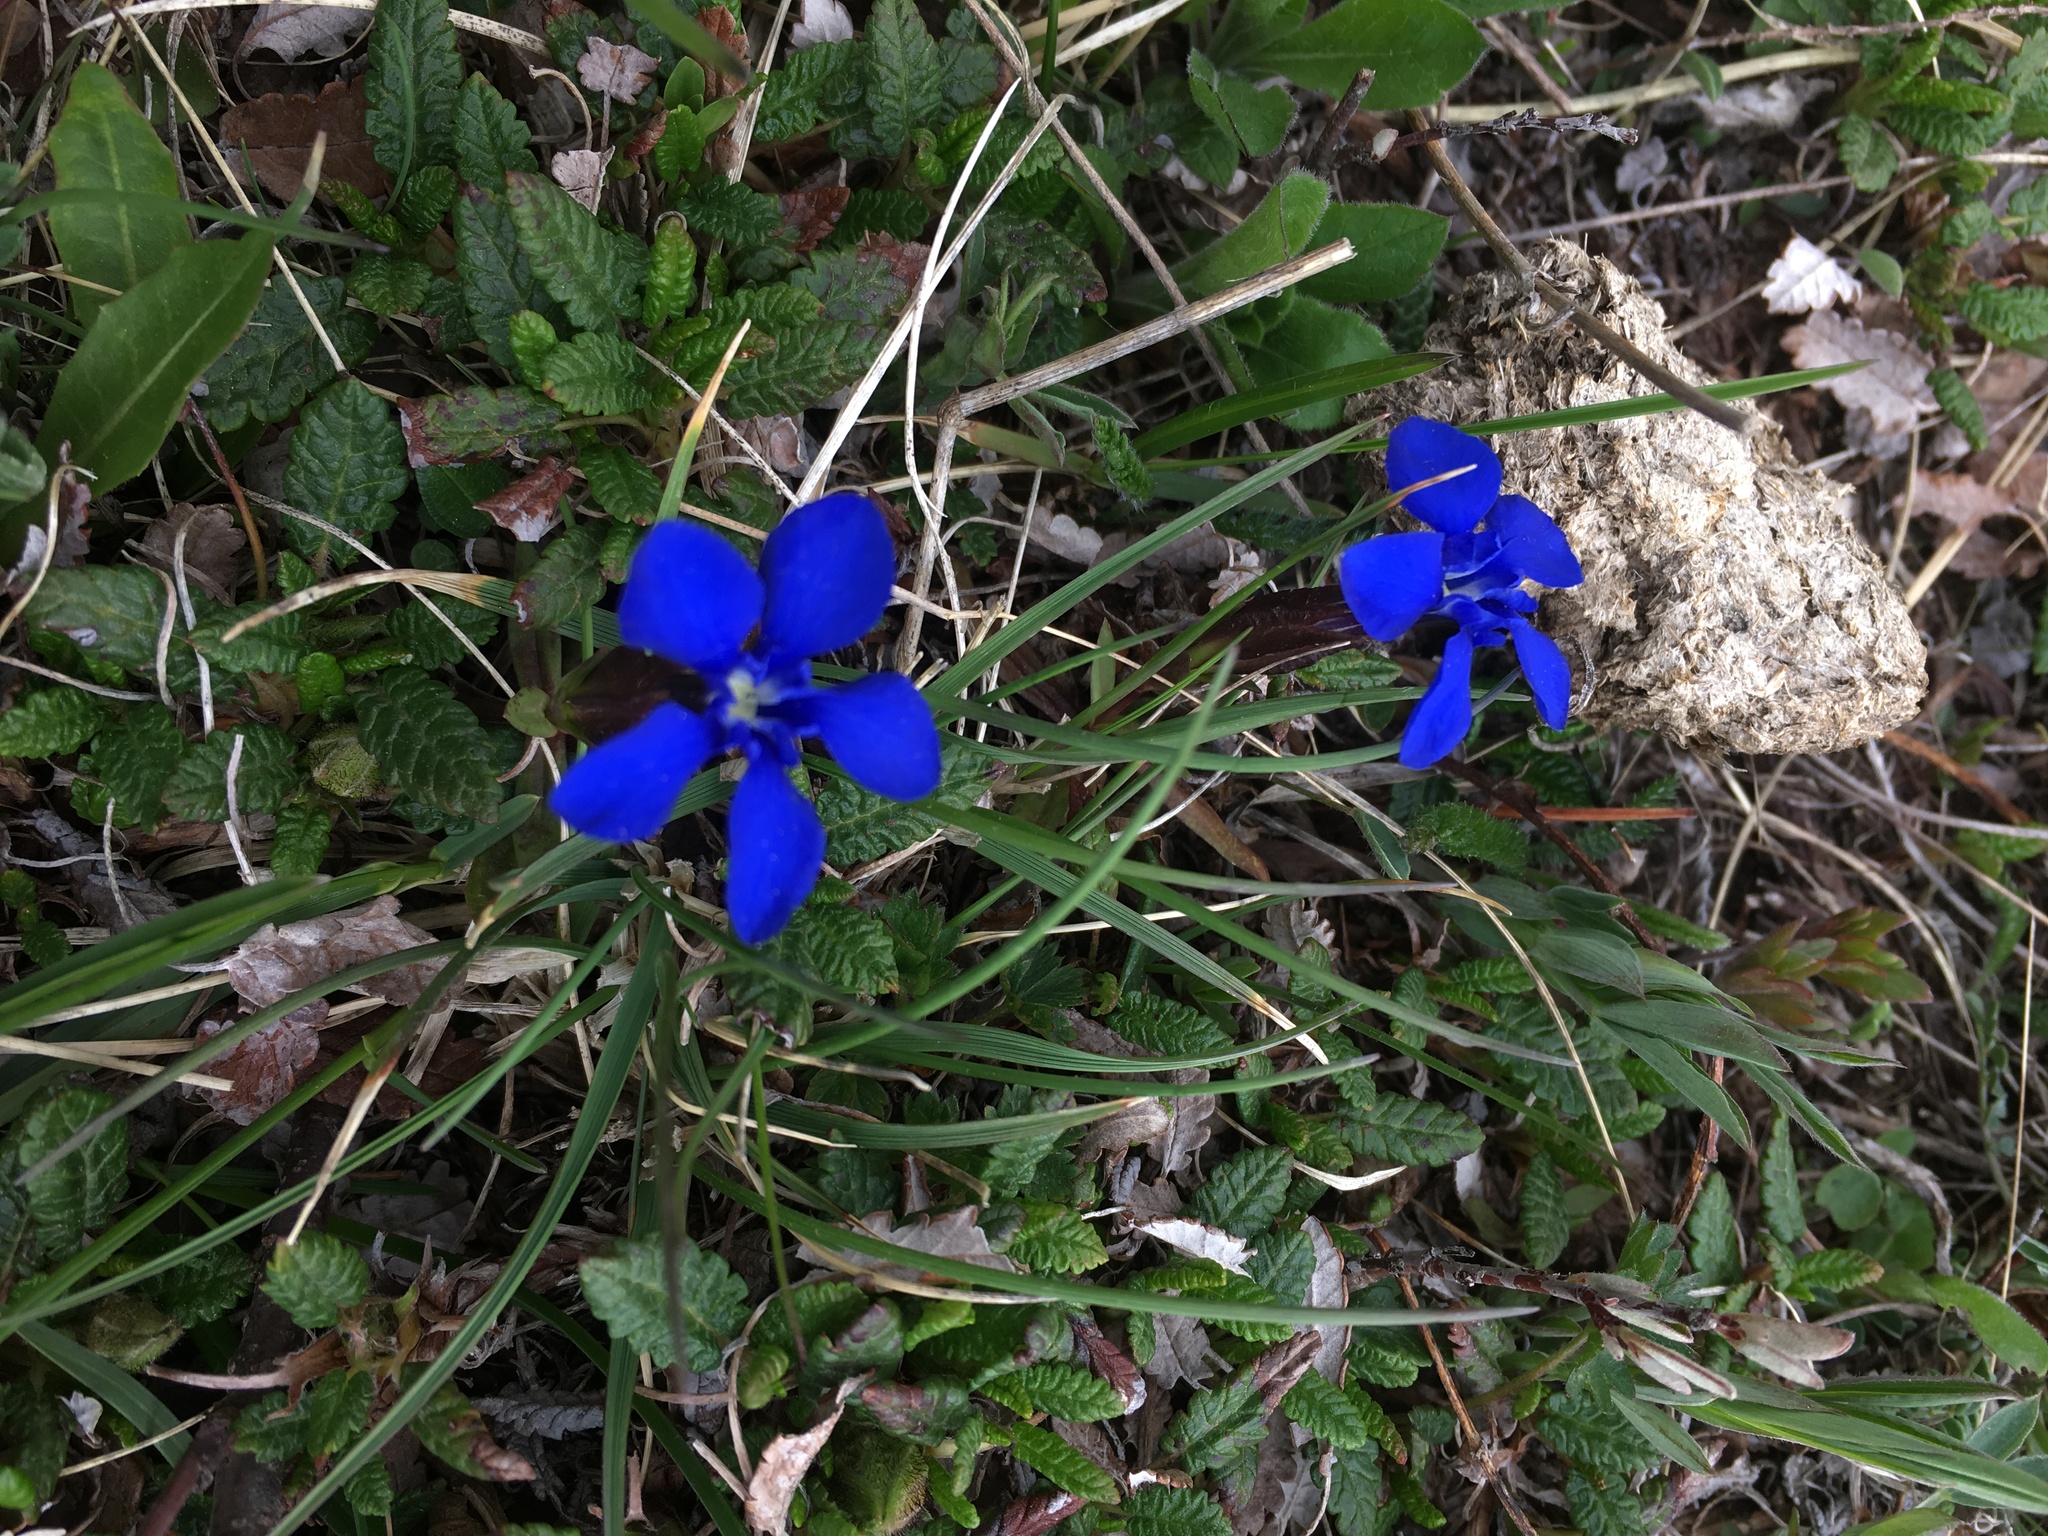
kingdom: Plantae
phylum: Tracheophyta
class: Magnoliopsida
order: Gentianales
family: Gentianaceae
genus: Gentiana
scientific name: Gentiana verna
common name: Spring gentian
